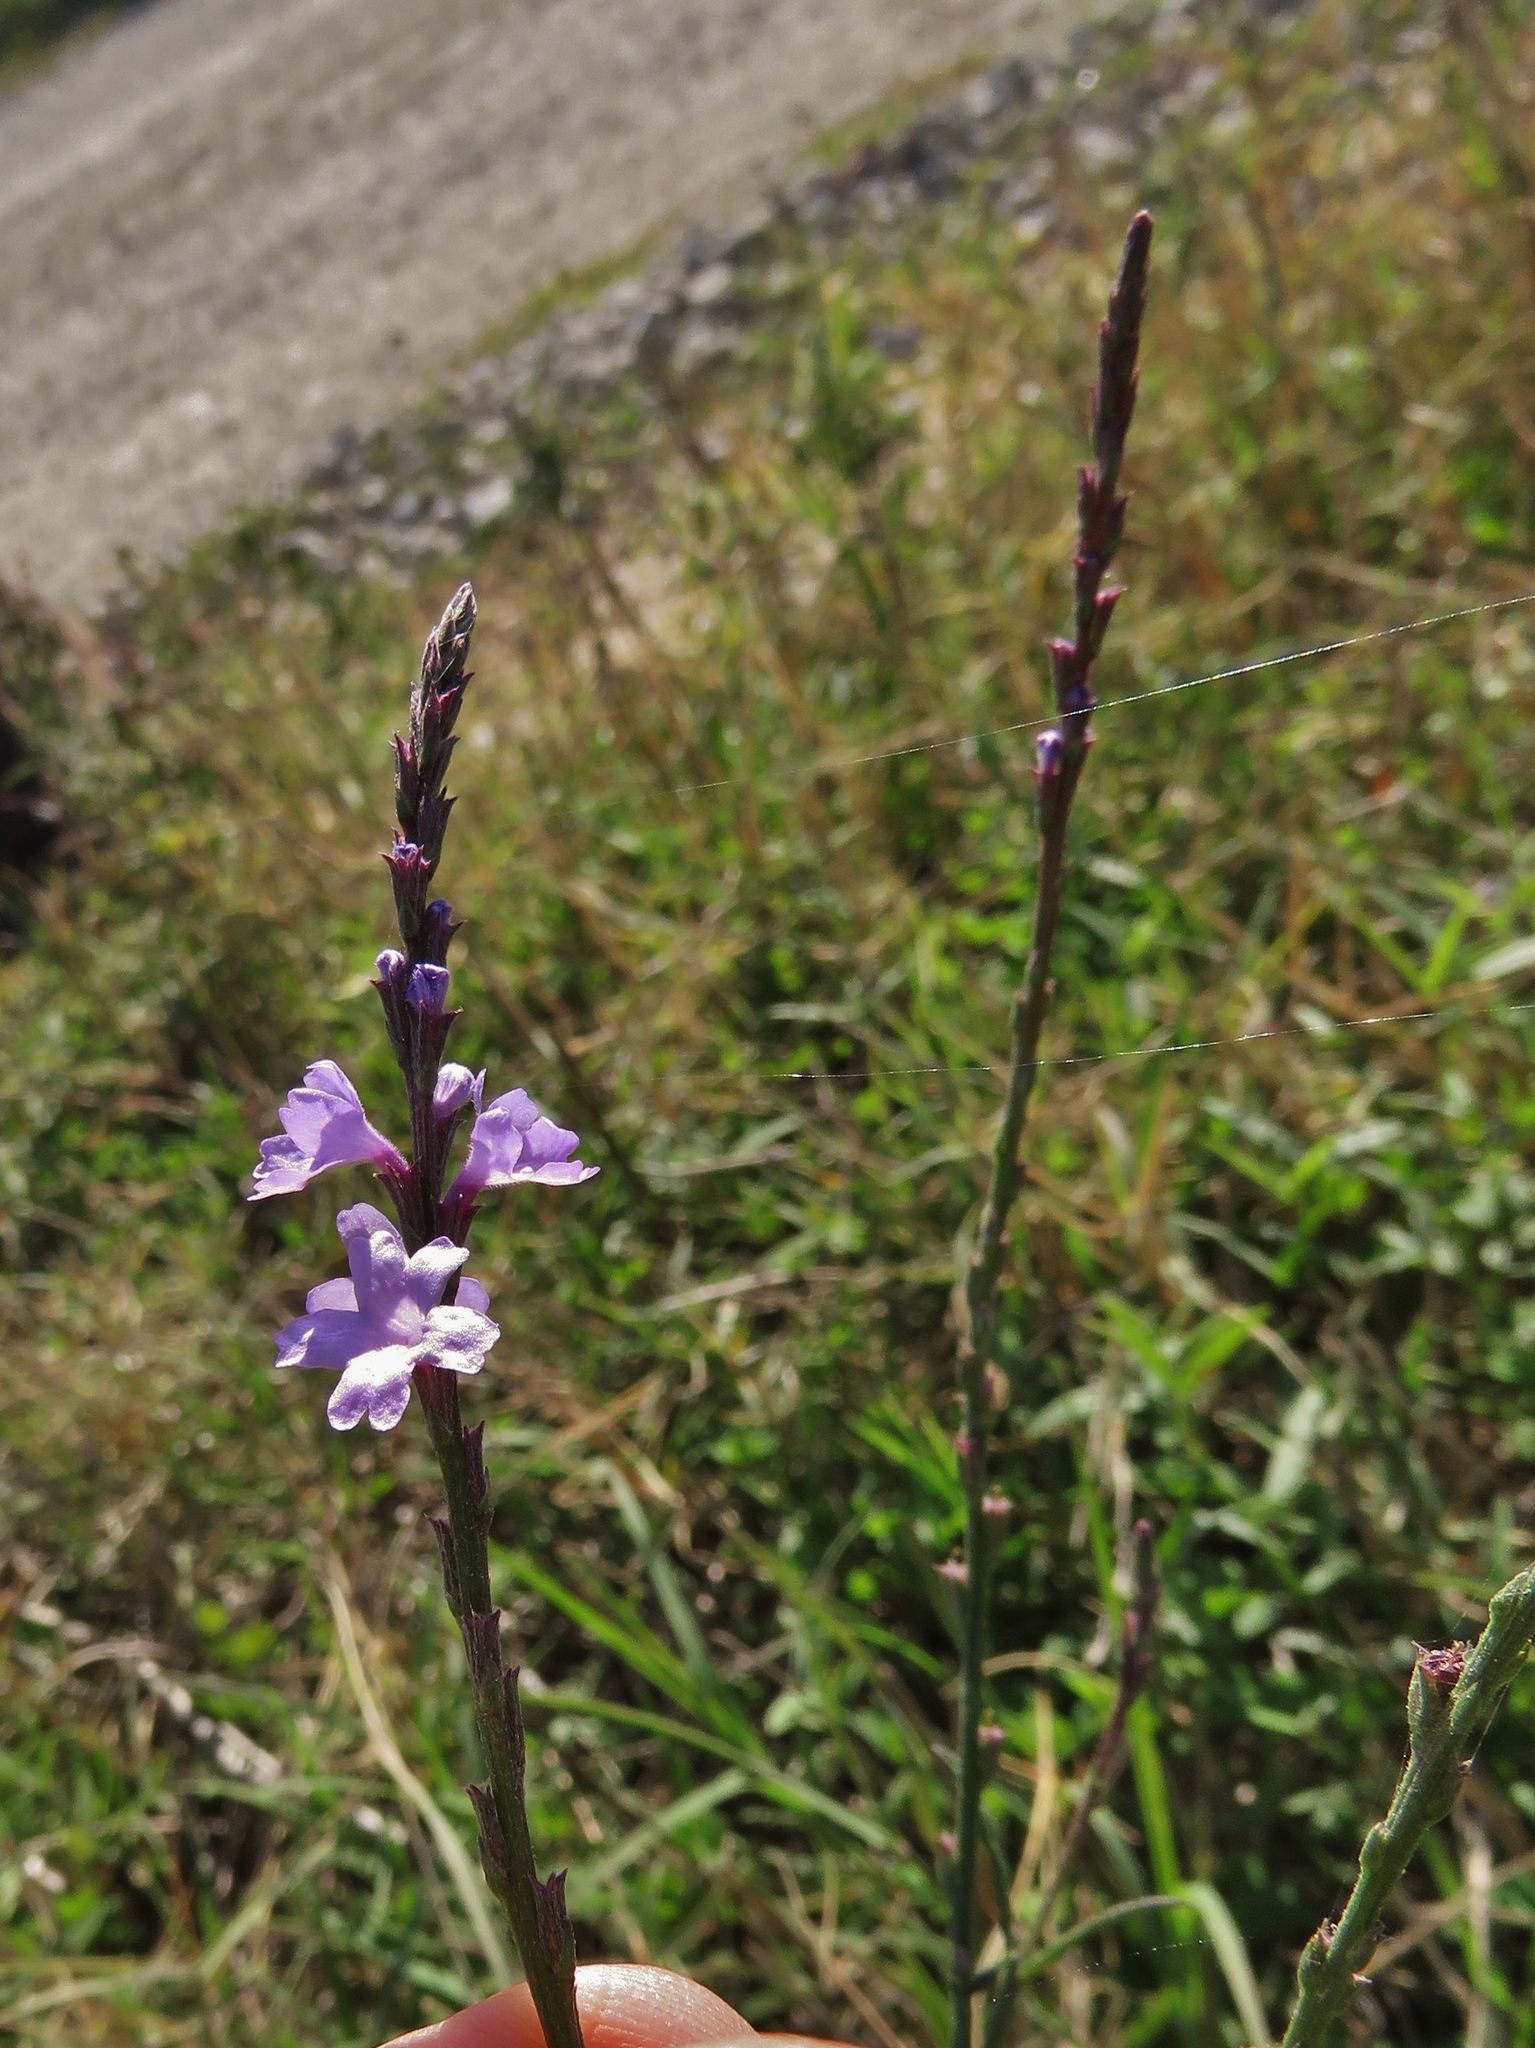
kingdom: Plantae
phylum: Tracheophyta
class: Magnoliopsida
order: Lamiales
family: Verbenaceae
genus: Verbena
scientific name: Verbena halei
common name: Texas vervain
